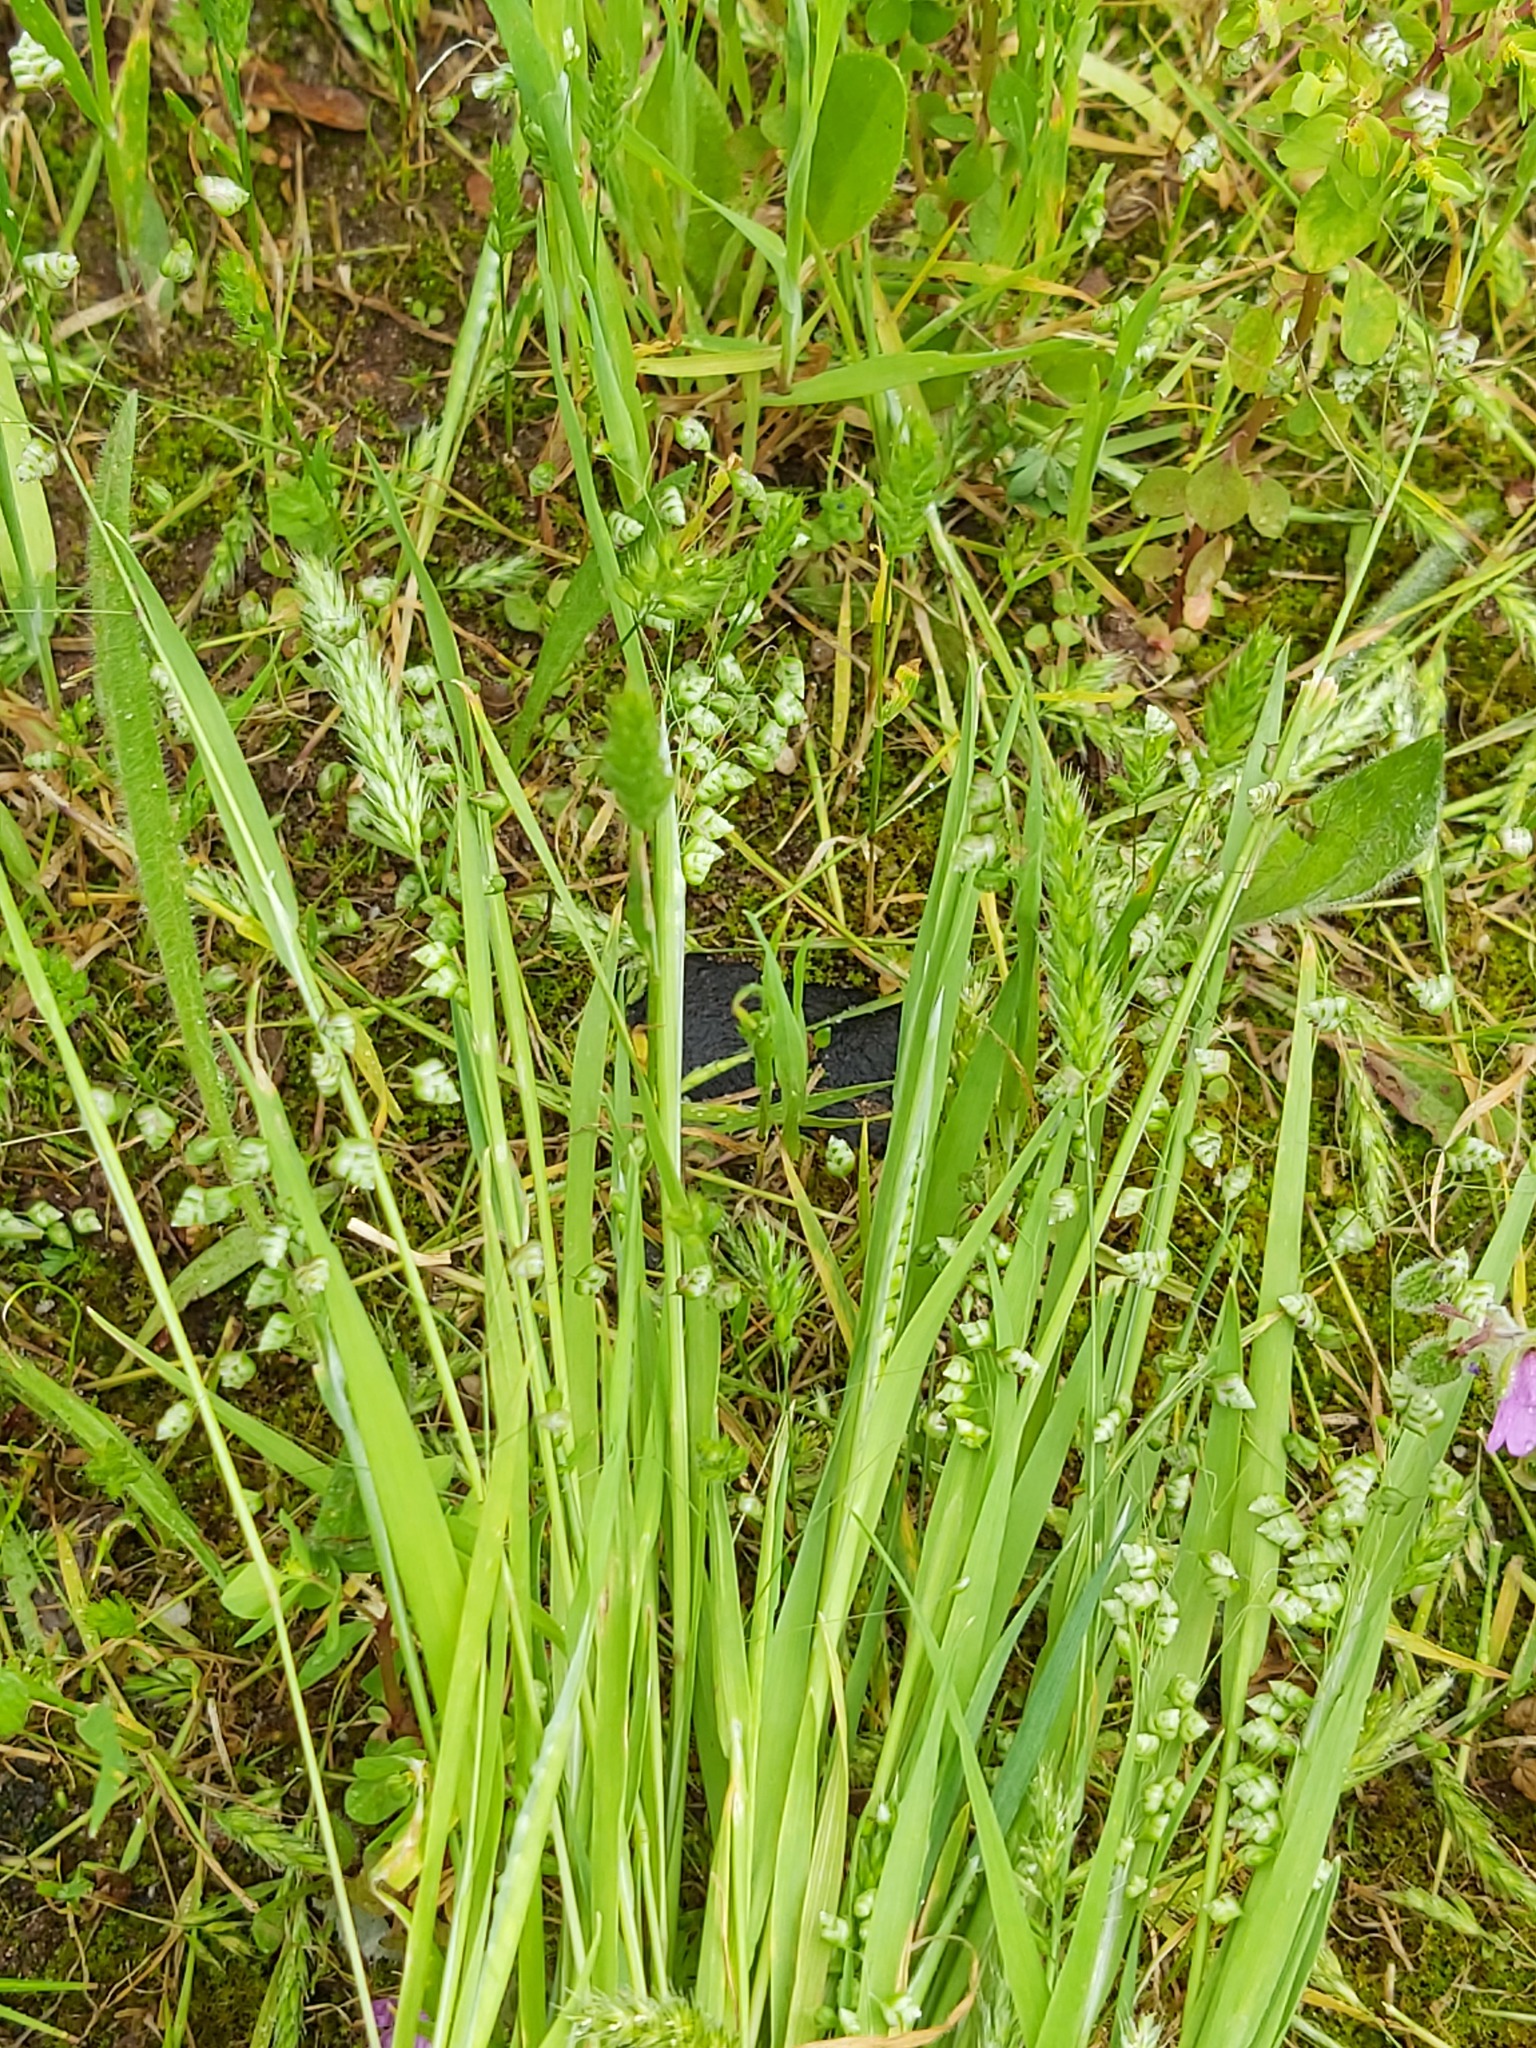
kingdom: Plantae
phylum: Tracheophyta
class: Liliopsida
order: Poales
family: Poaceae
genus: Briza
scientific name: Briza minor
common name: Lesser quaking-grass
